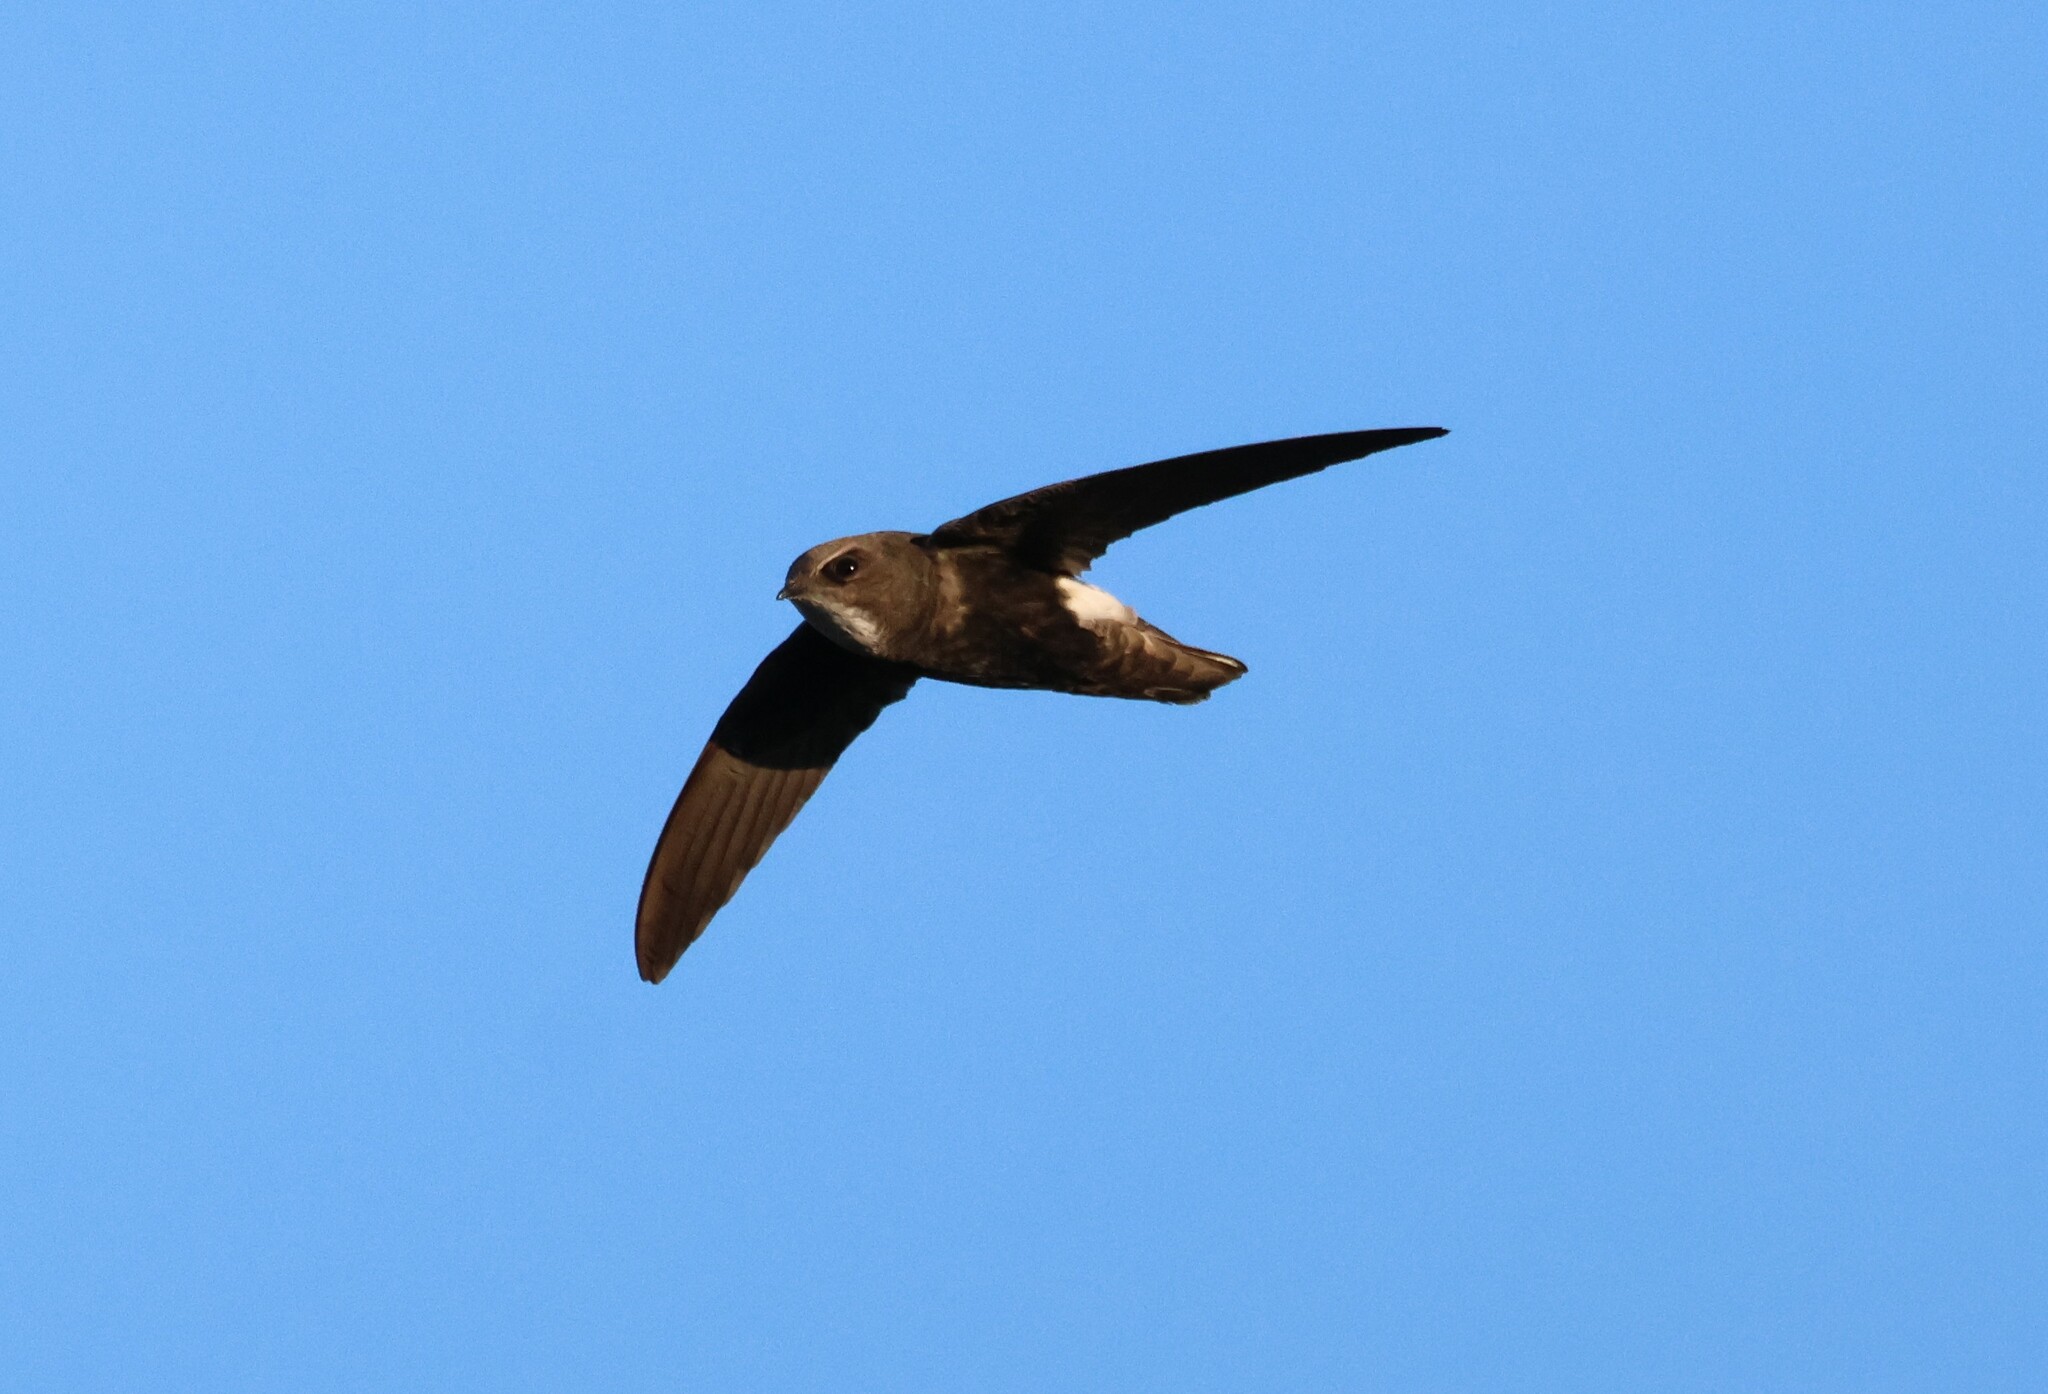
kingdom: Animalia
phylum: Chordata
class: Aves
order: Apodiformes
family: Apodidae
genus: Apus
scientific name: Apus affinis
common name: Little swift
